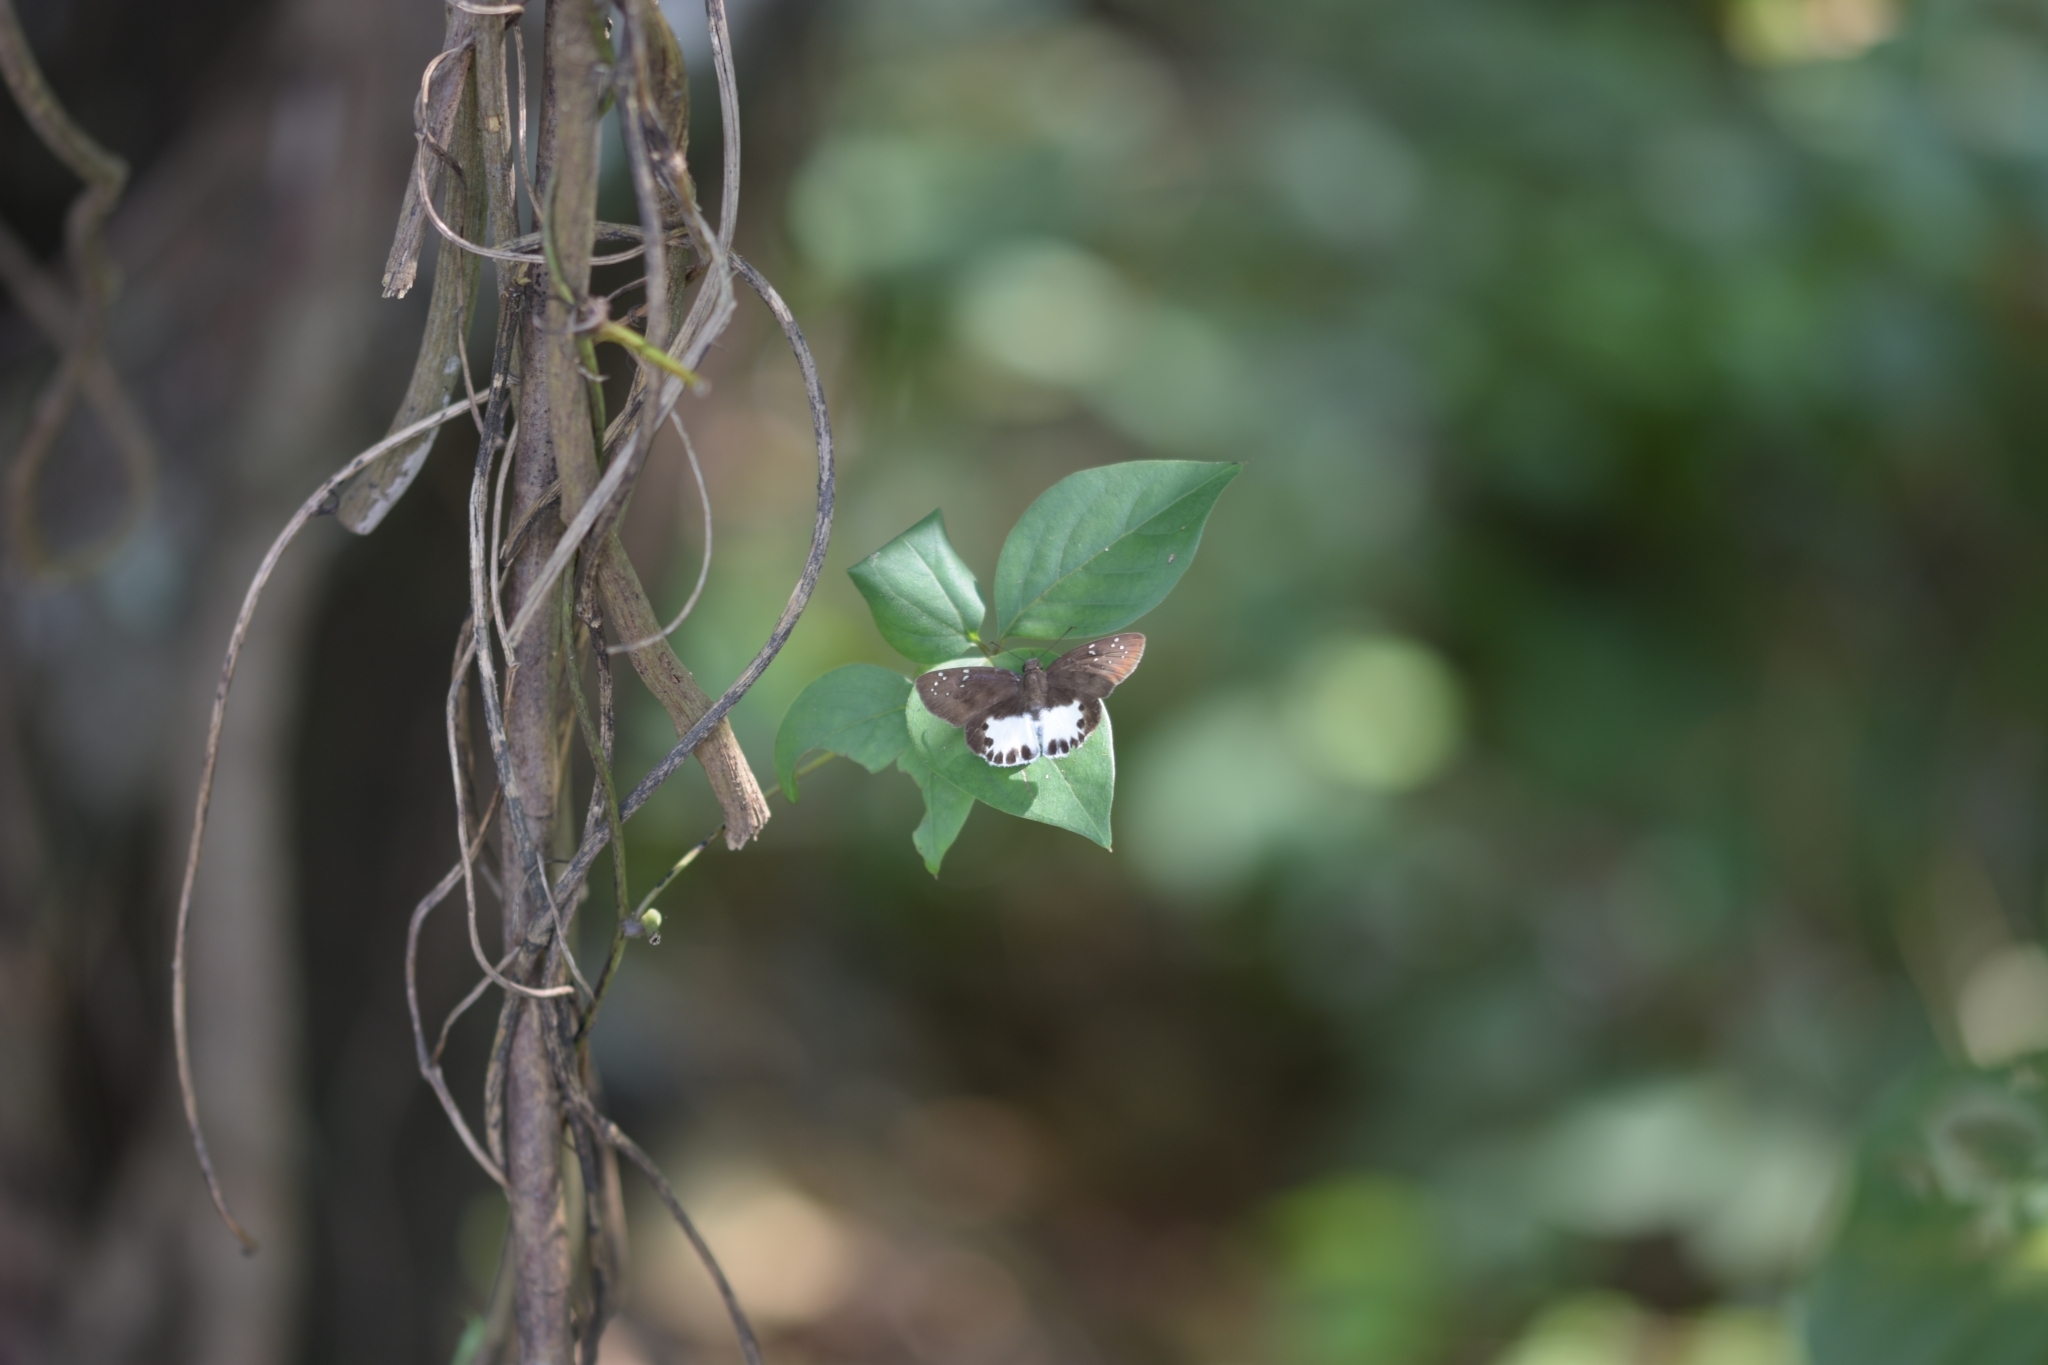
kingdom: Animalia
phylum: Arthropoda
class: Insecta
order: Lepidoptera
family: Hesperiidae
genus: Tagiades
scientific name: Tagiades litigiosa
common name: Water snow flat
